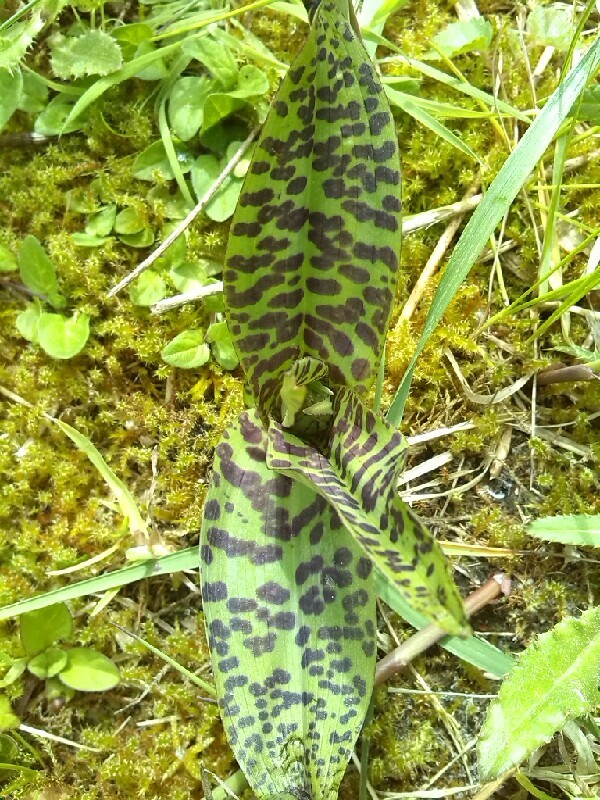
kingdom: Plantae
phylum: Tracheophyta
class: Liliopsida
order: Asparagales
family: Orchidaceae
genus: Dactylorhiza
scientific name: Dactylorhiza majalis
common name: Marsh orchid
